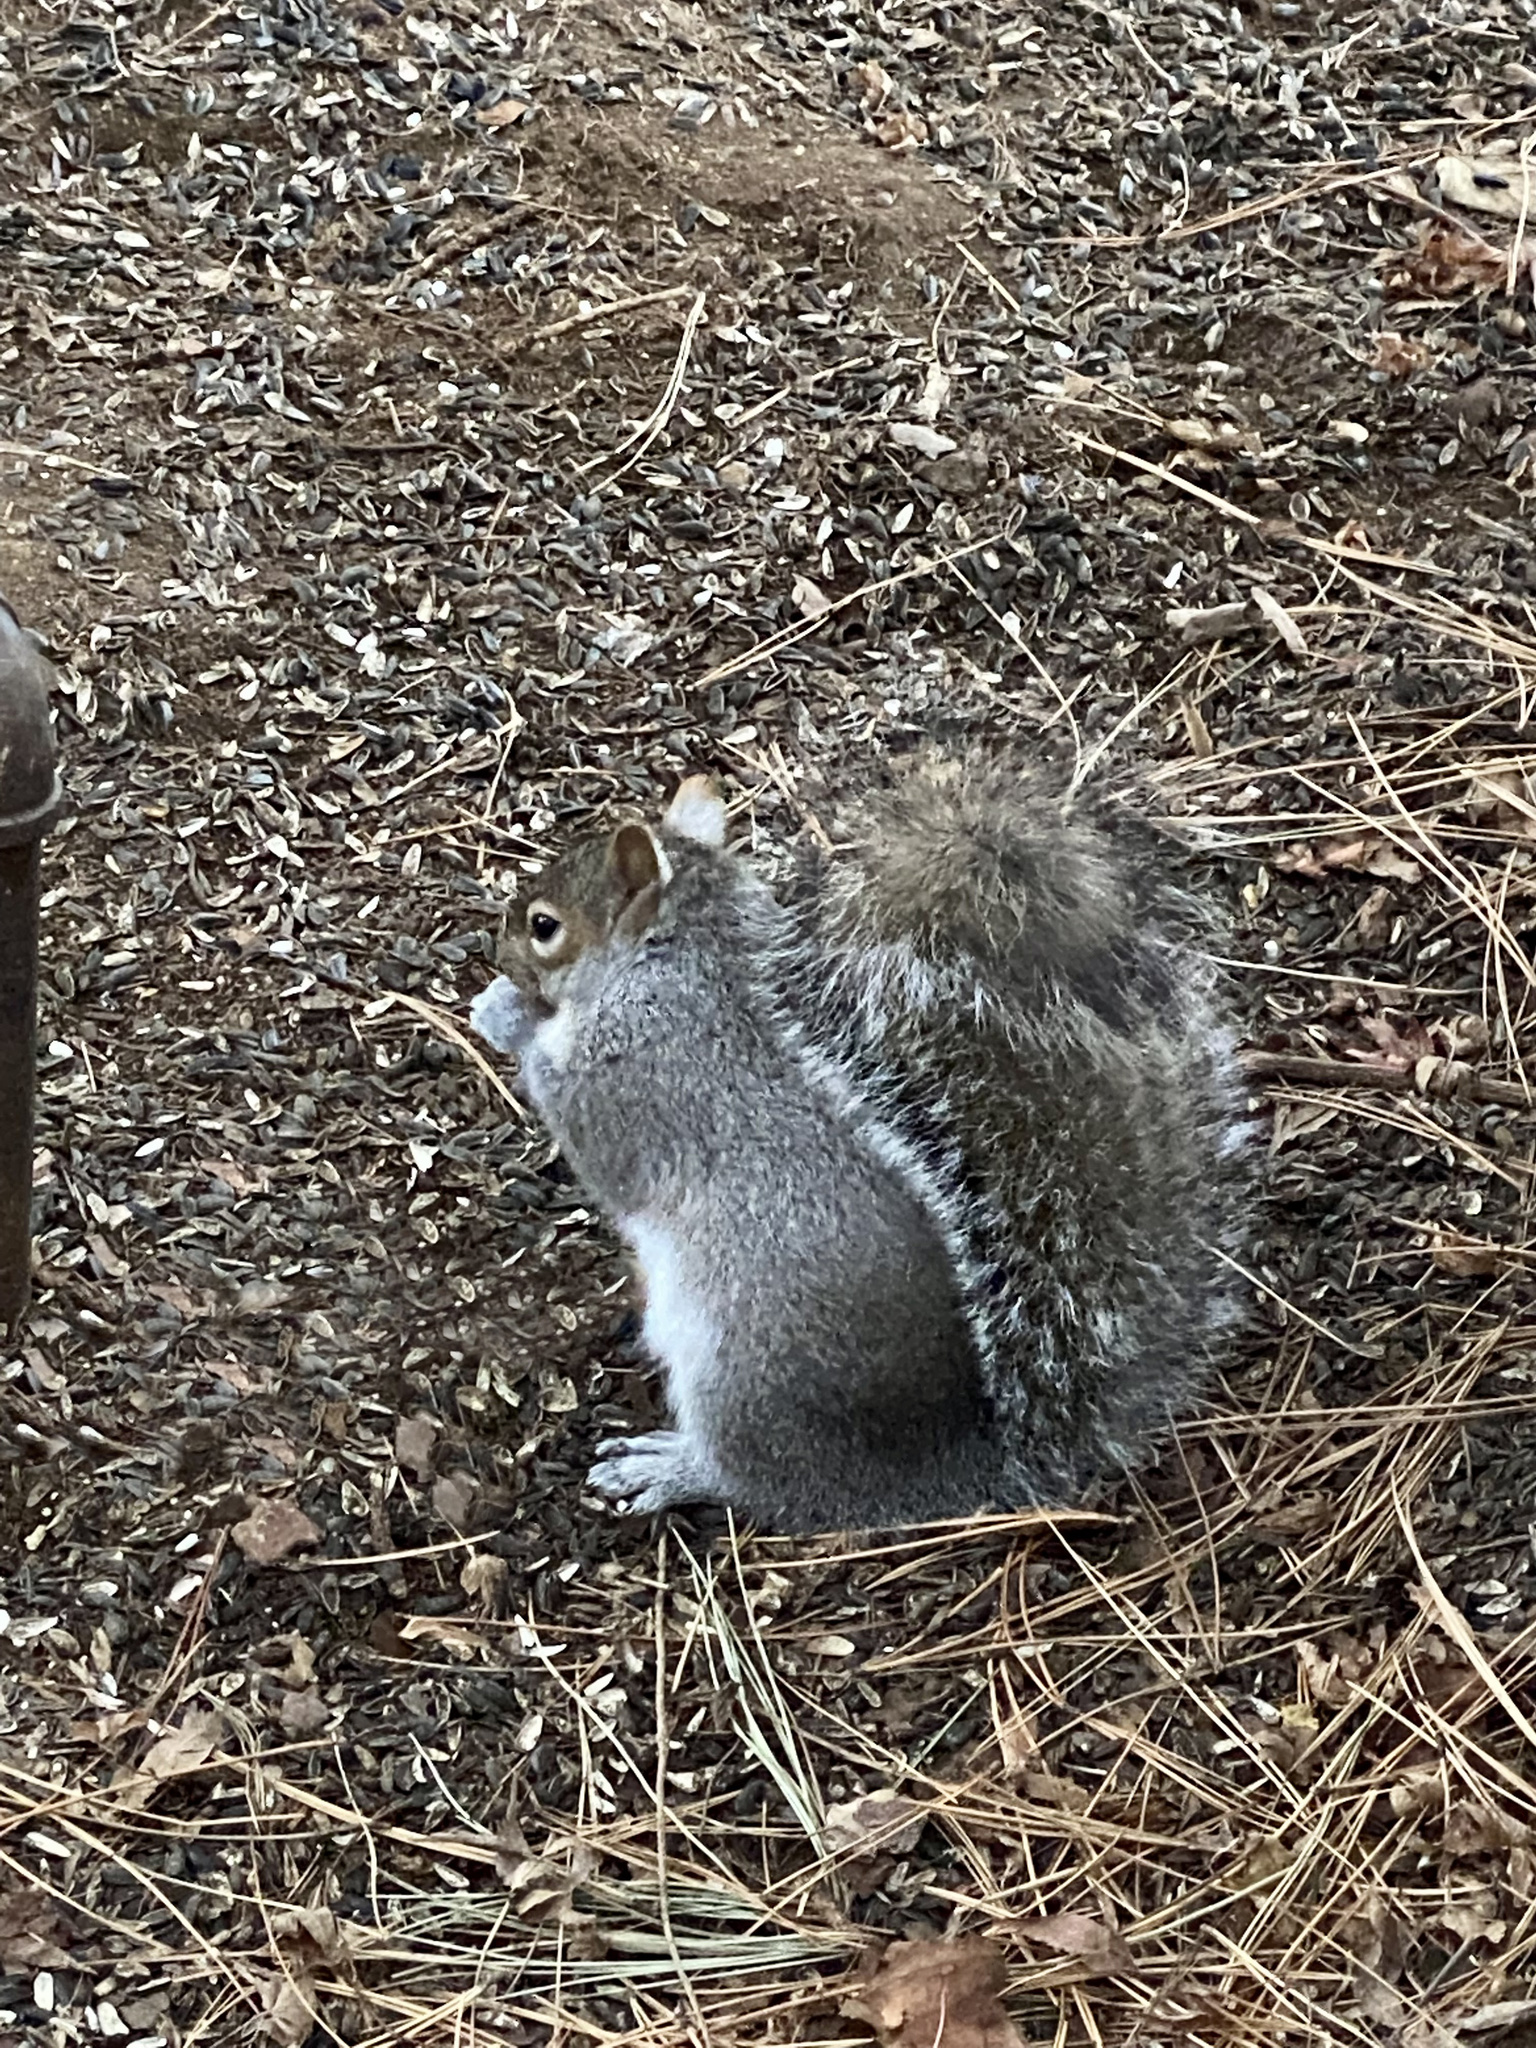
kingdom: Animalia
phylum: Chordata
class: Mammalia
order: Rodentia
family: Sciuridae
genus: Sciurus
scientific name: Sciurus carolinensis
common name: Eastern gray squirrel
